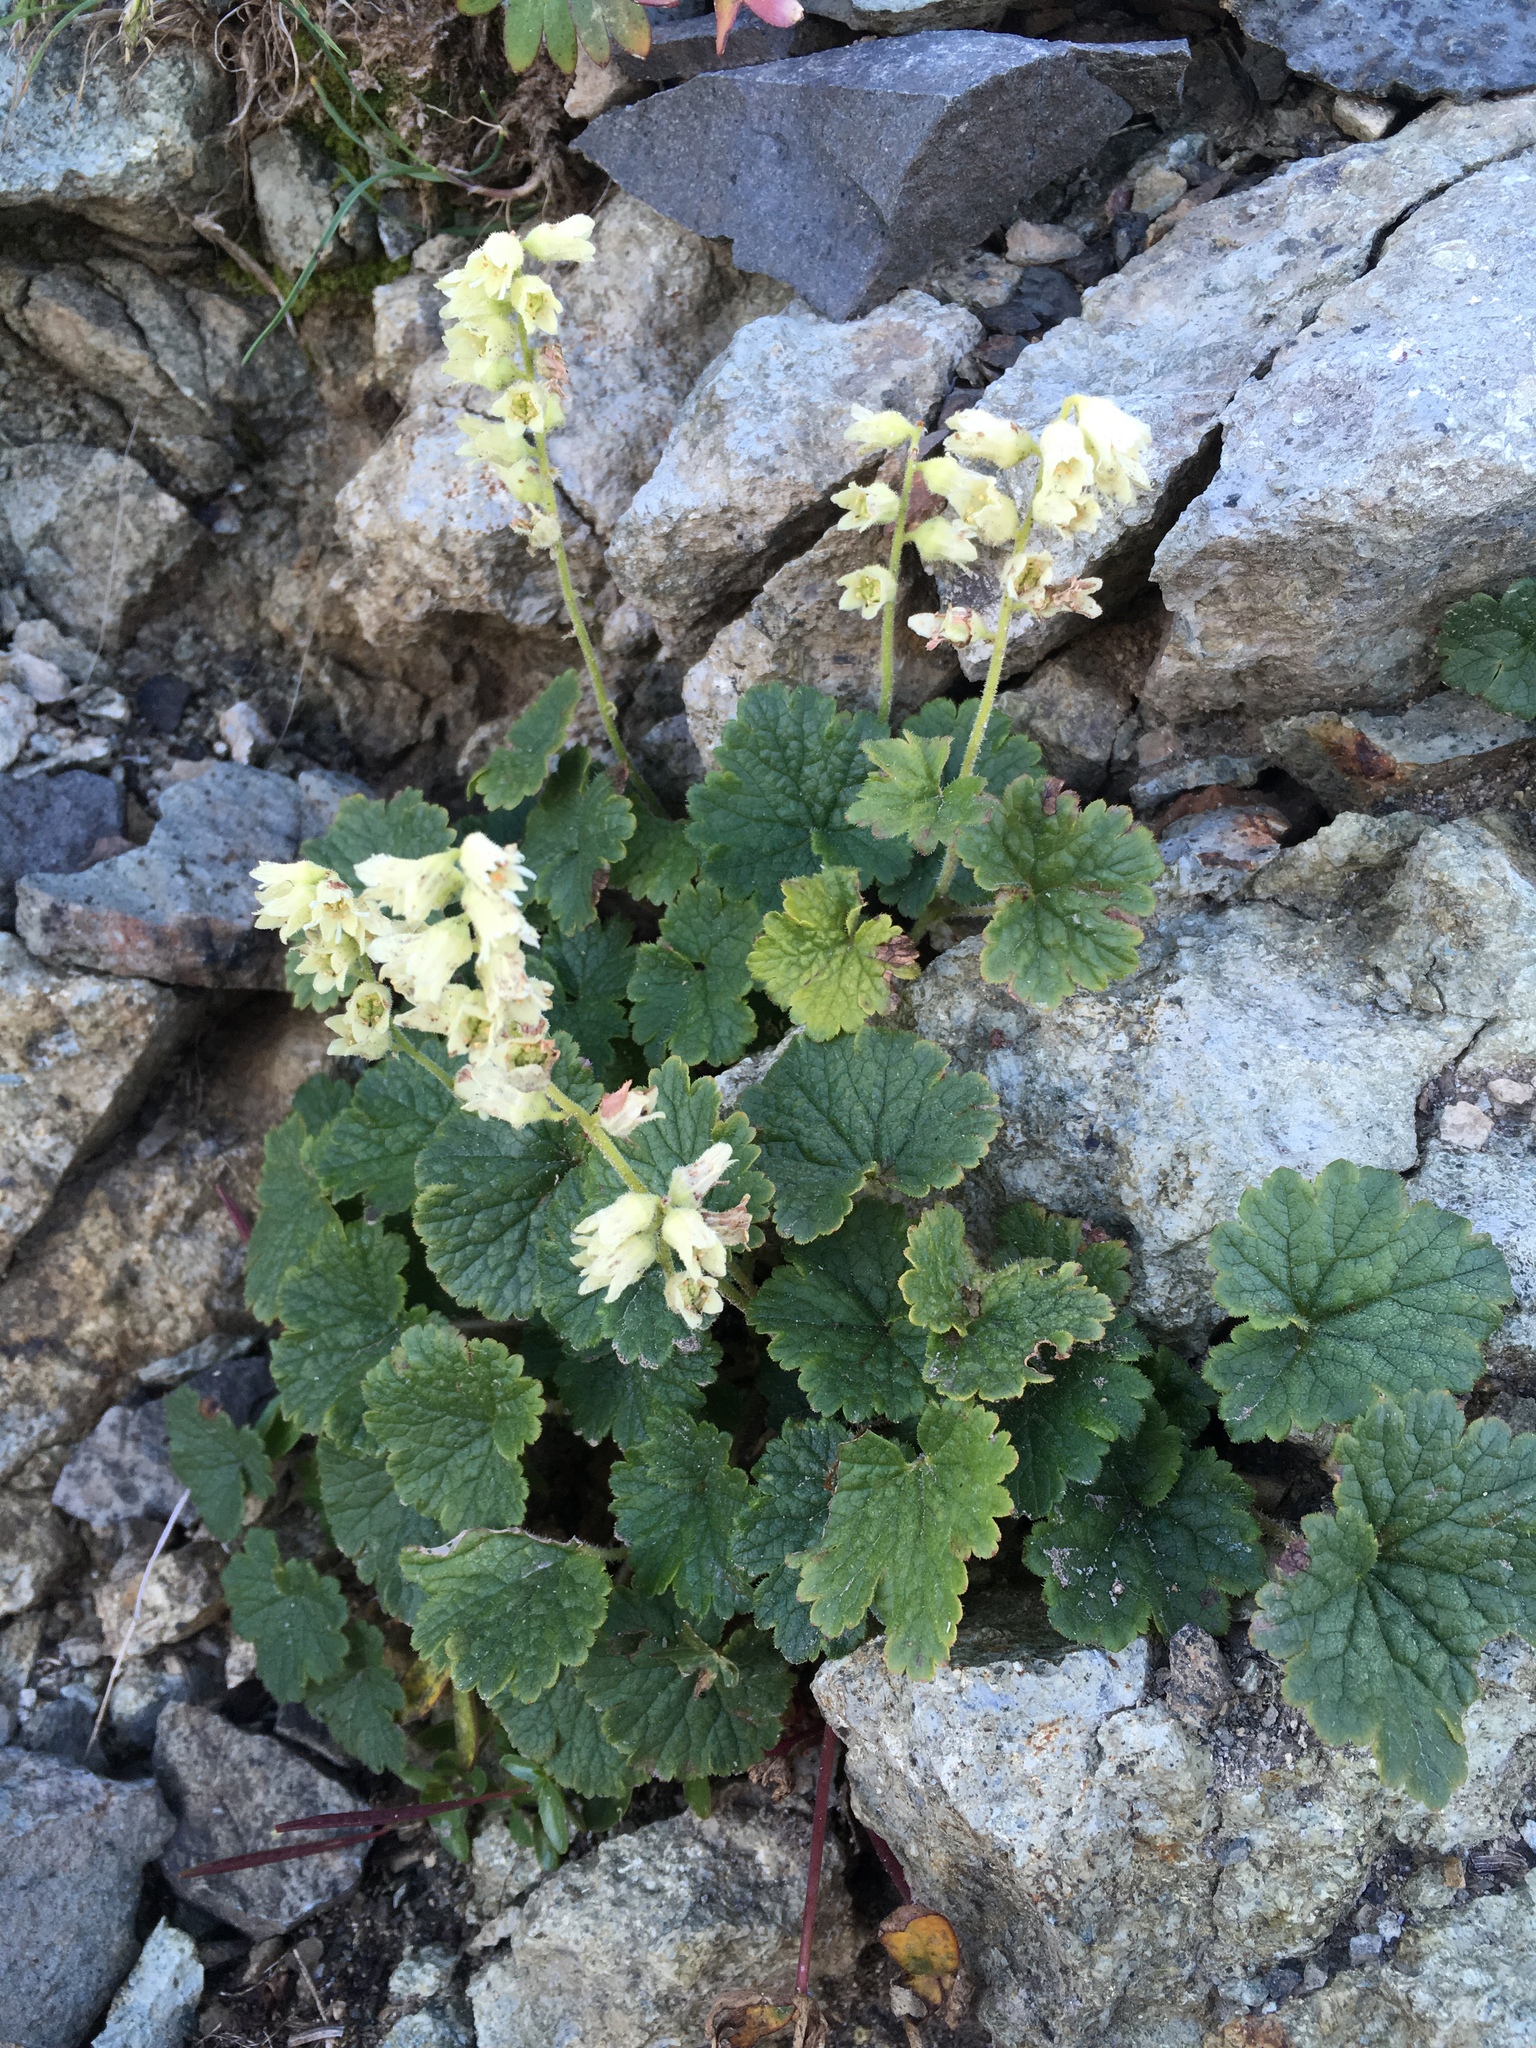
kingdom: Plantae
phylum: Tracheophyta
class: Magnoliopsida
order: Saxifragales
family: Saxifragaceae
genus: Elmera
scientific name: Elmera racemosa
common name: Elmera
